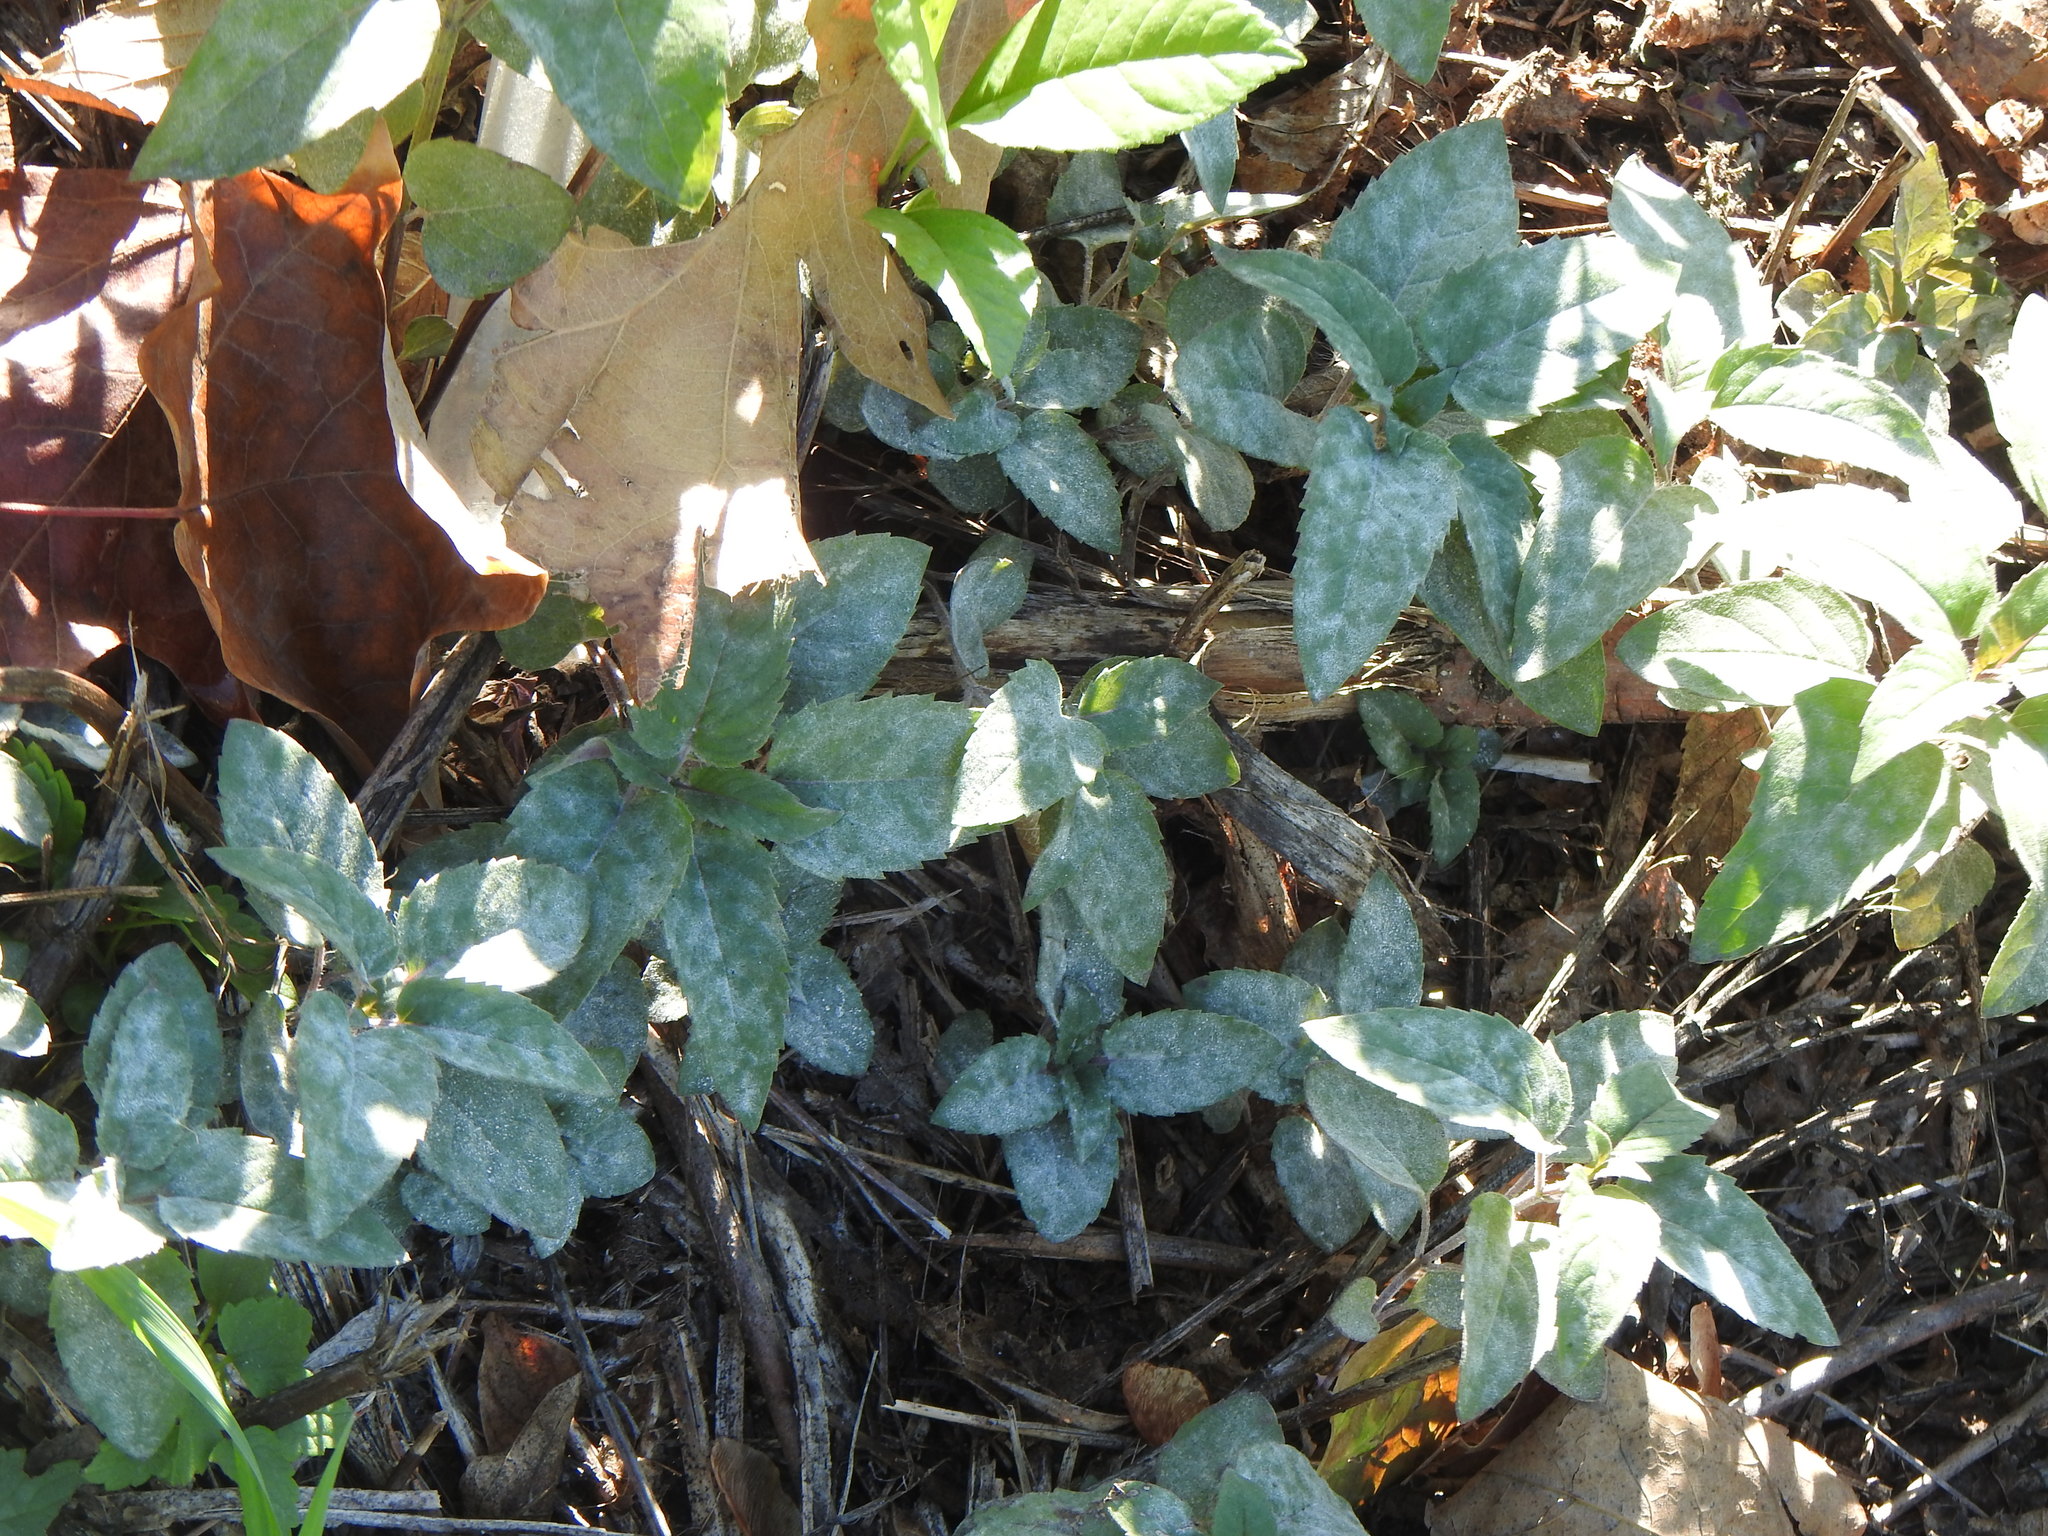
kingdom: Plantae
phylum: Tracheophyta
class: Magnoliopsida
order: Lamiales
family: Lamiaceae
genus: Monarda
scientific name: Monarda fistulosa
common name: Purple beebalm
